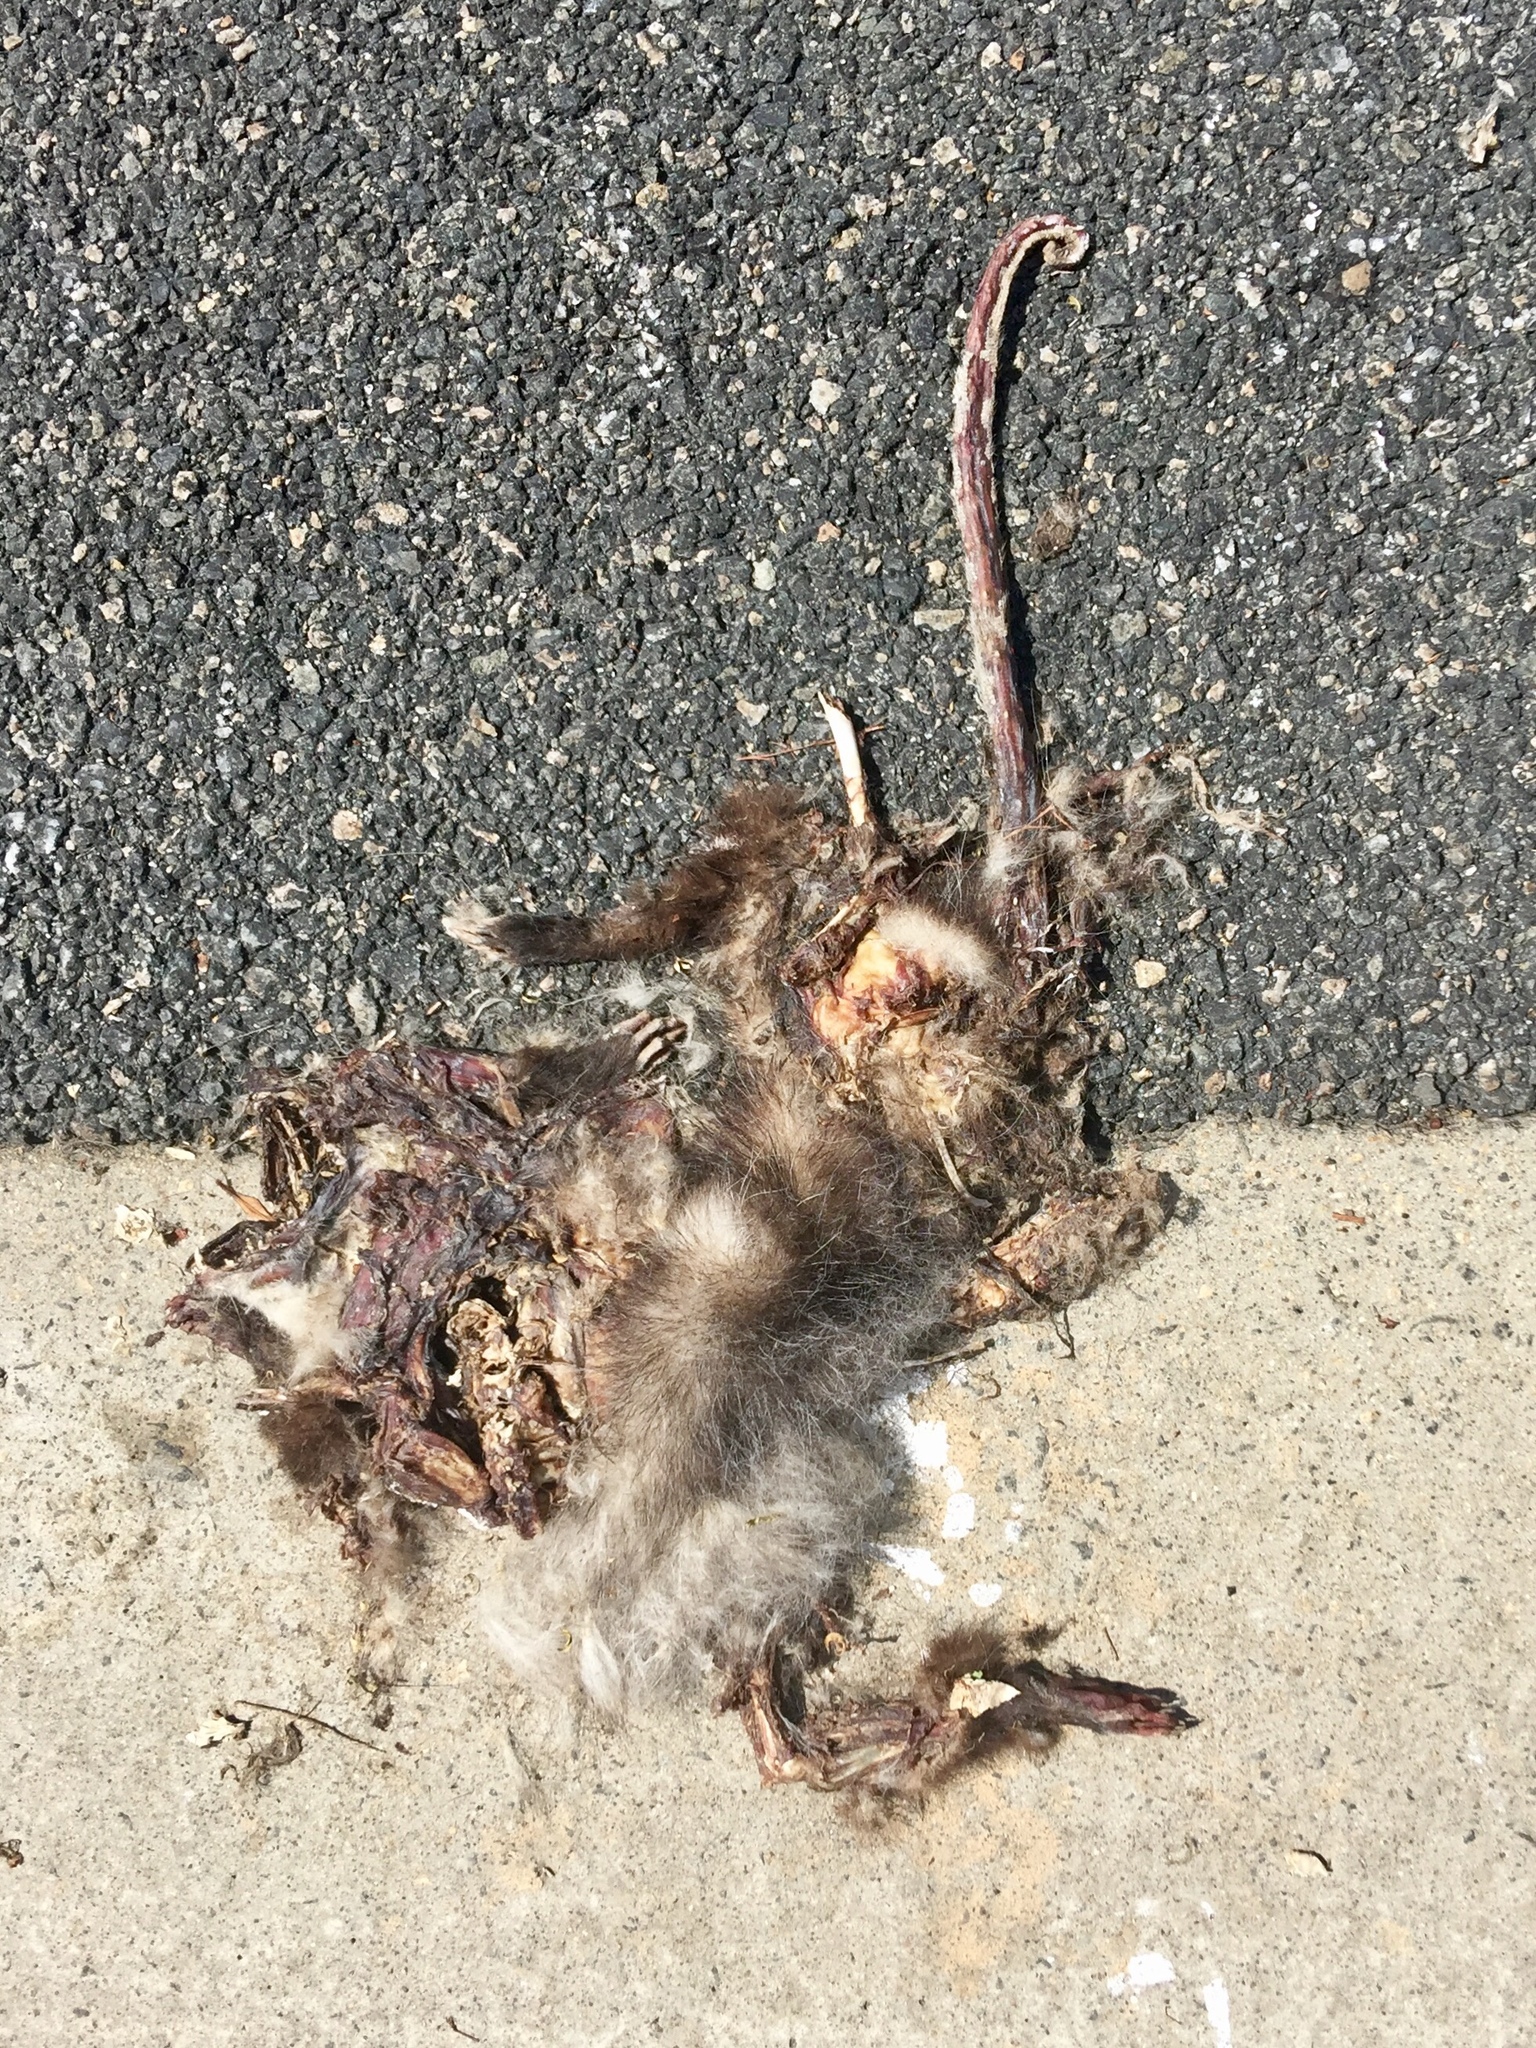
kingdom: Animalia
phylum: Chordata
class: Mammalia
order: Didelphimorphia
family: Didelphidae
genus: Didelphis
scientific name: Didelphis virginiana
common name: Virginia opossum
